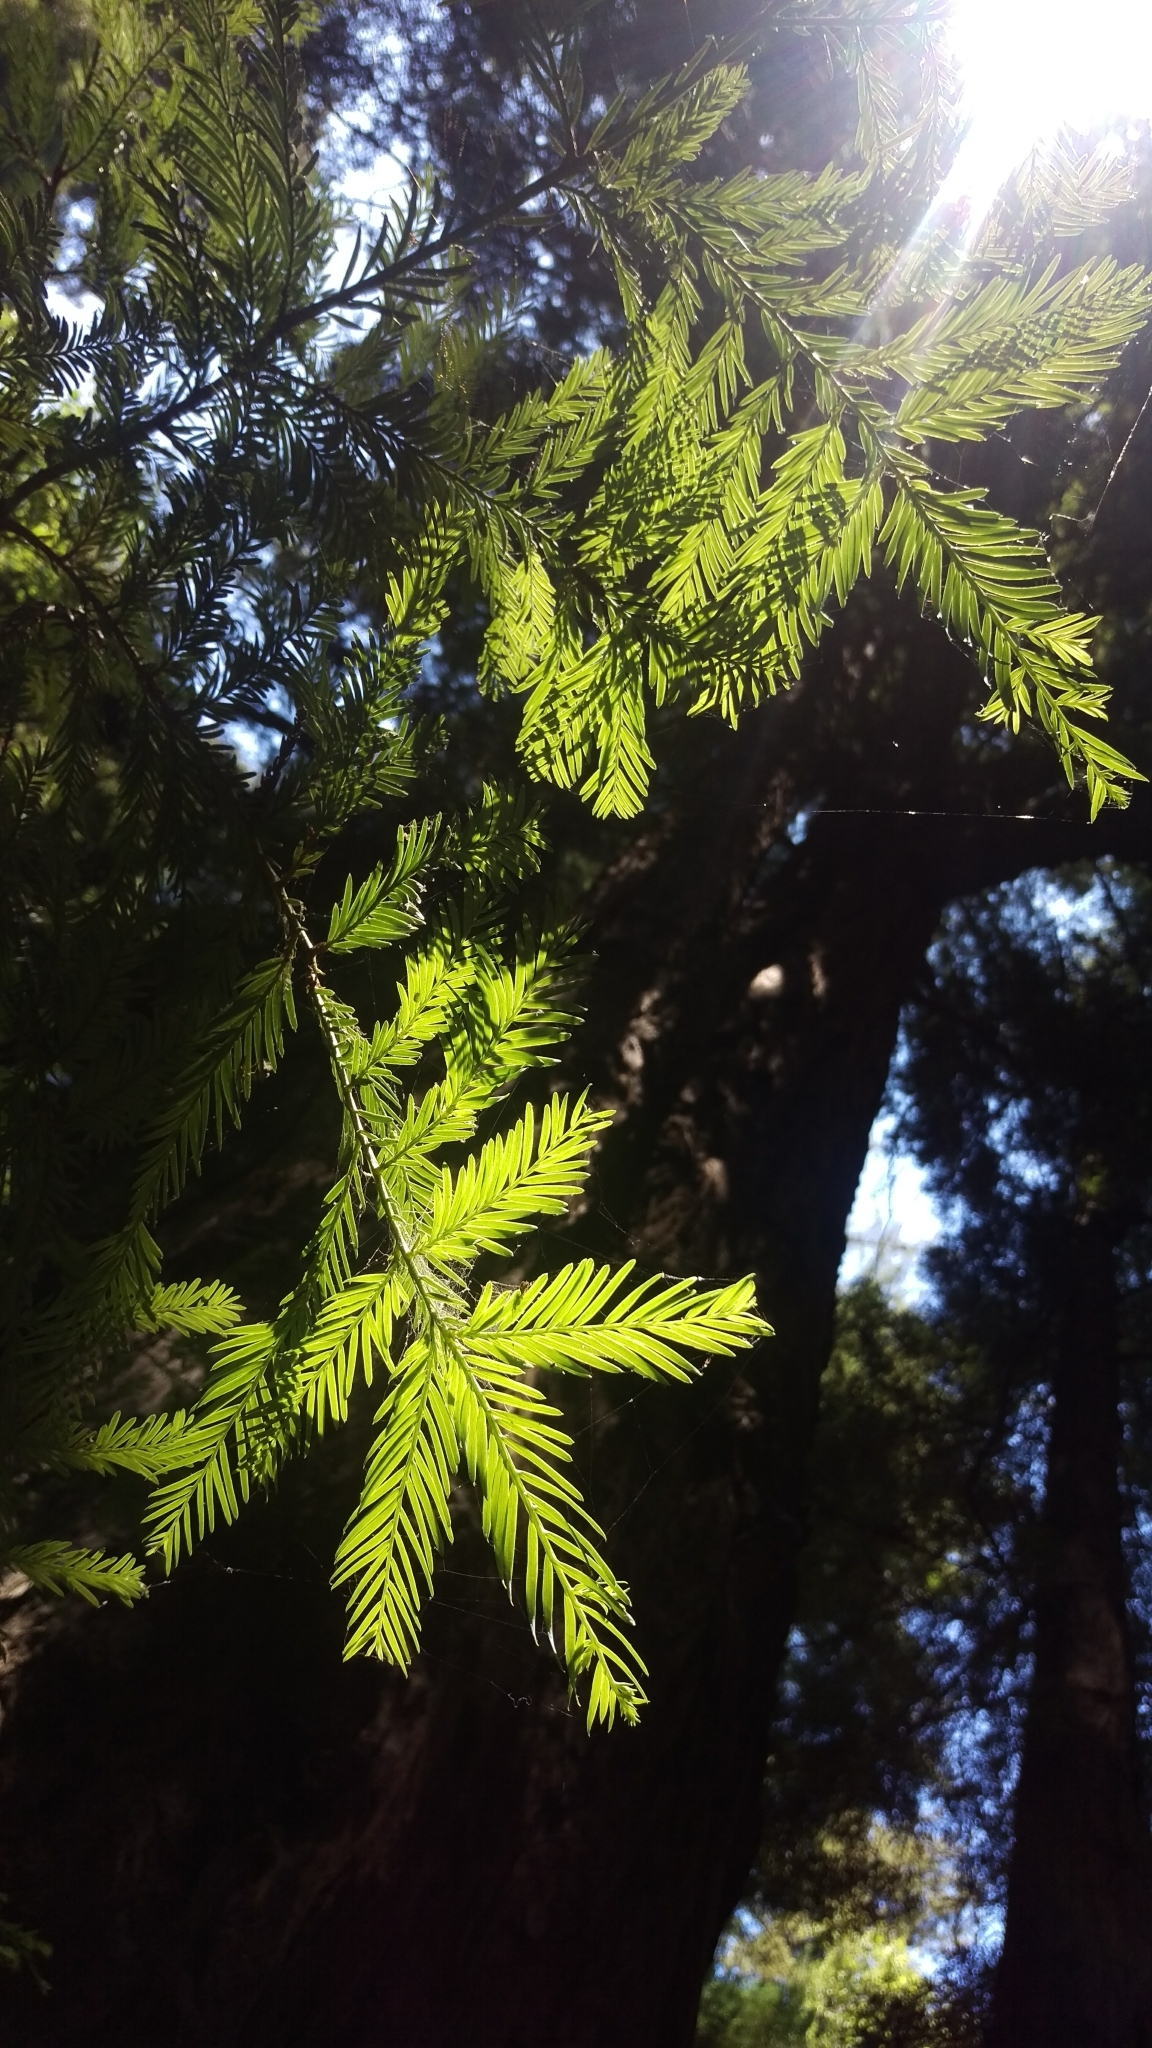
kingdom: Plantae
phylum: Tracheophyta
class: Pinopsida
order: Pinales
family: Cupressaceae
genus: Sequoia
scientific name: Sequoia sempervirens
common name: Coast redwood
